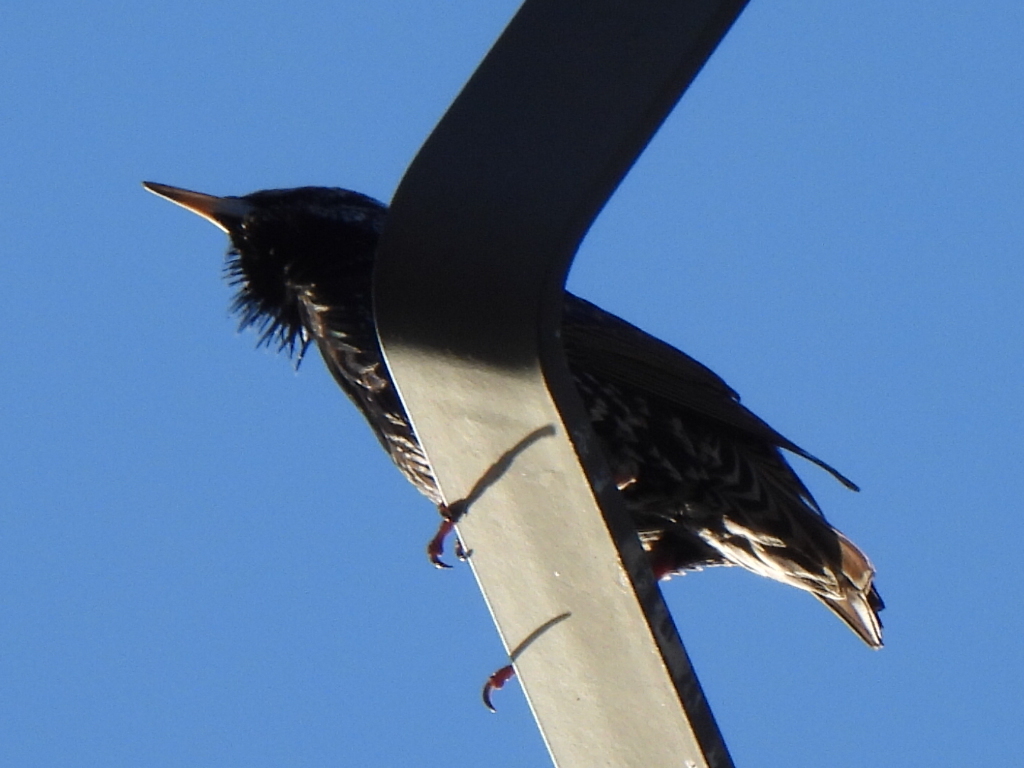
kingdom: Animalia
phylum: Chordata
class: Aves
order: Passeriformes
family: Sturnidae
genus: Sturnus
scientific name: Sturnus vulgaris
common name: Common starling
